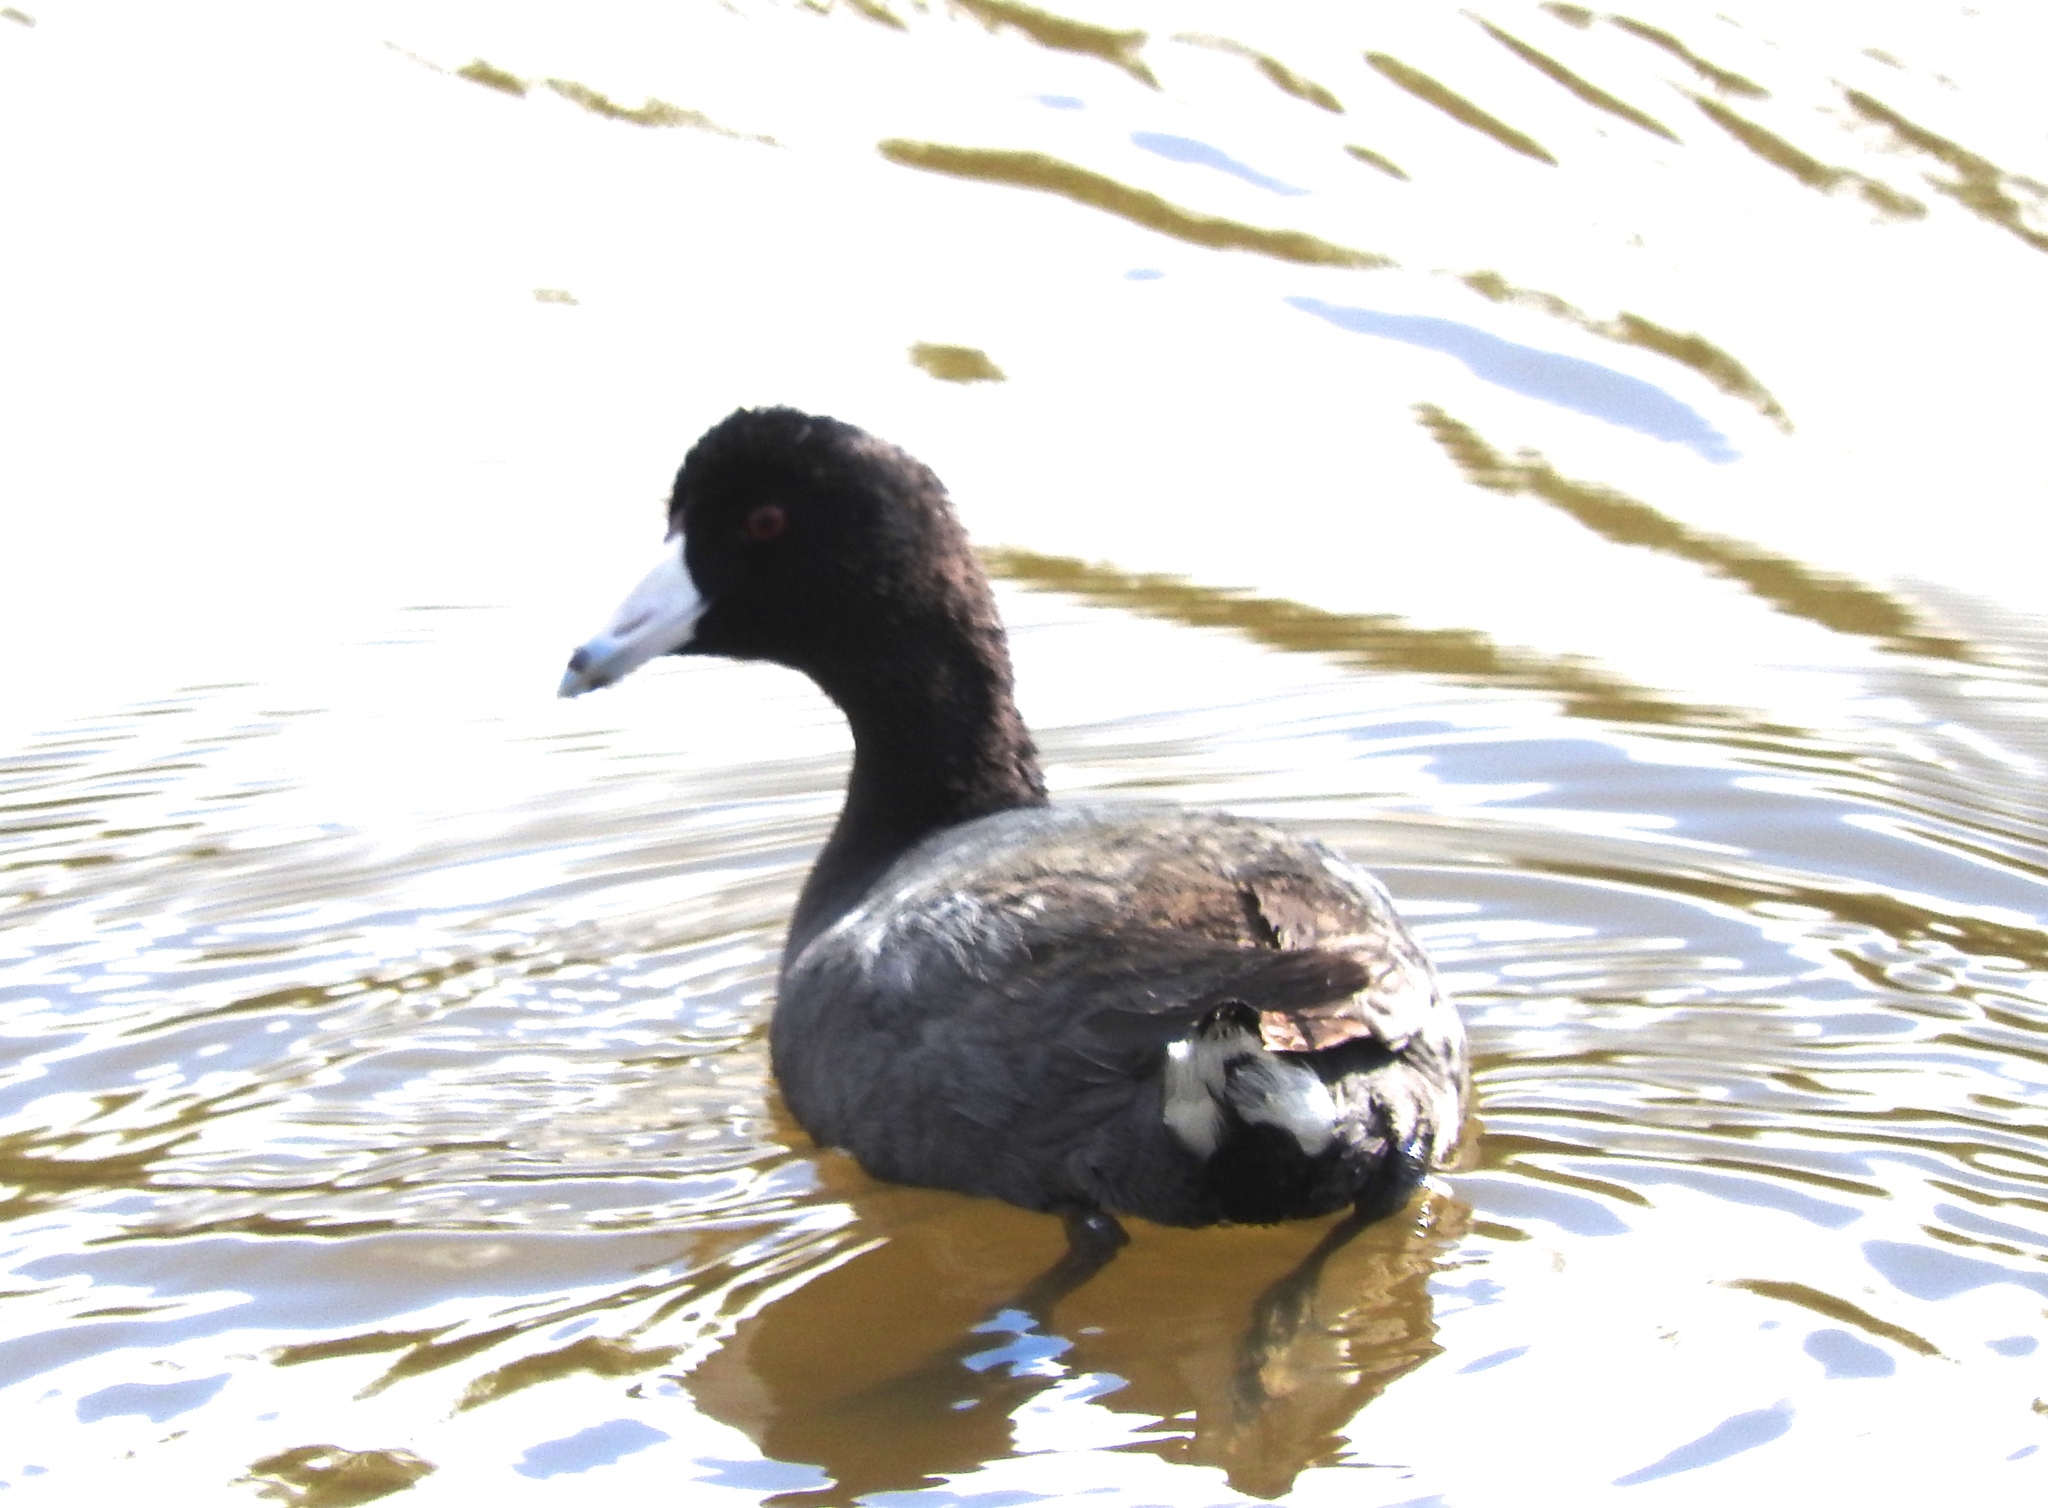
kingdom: Animalia
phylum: Chordata
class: Aves
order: Gruiformes
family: Rallidae
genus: Fulica
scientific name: Fulica americana
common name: American coot
